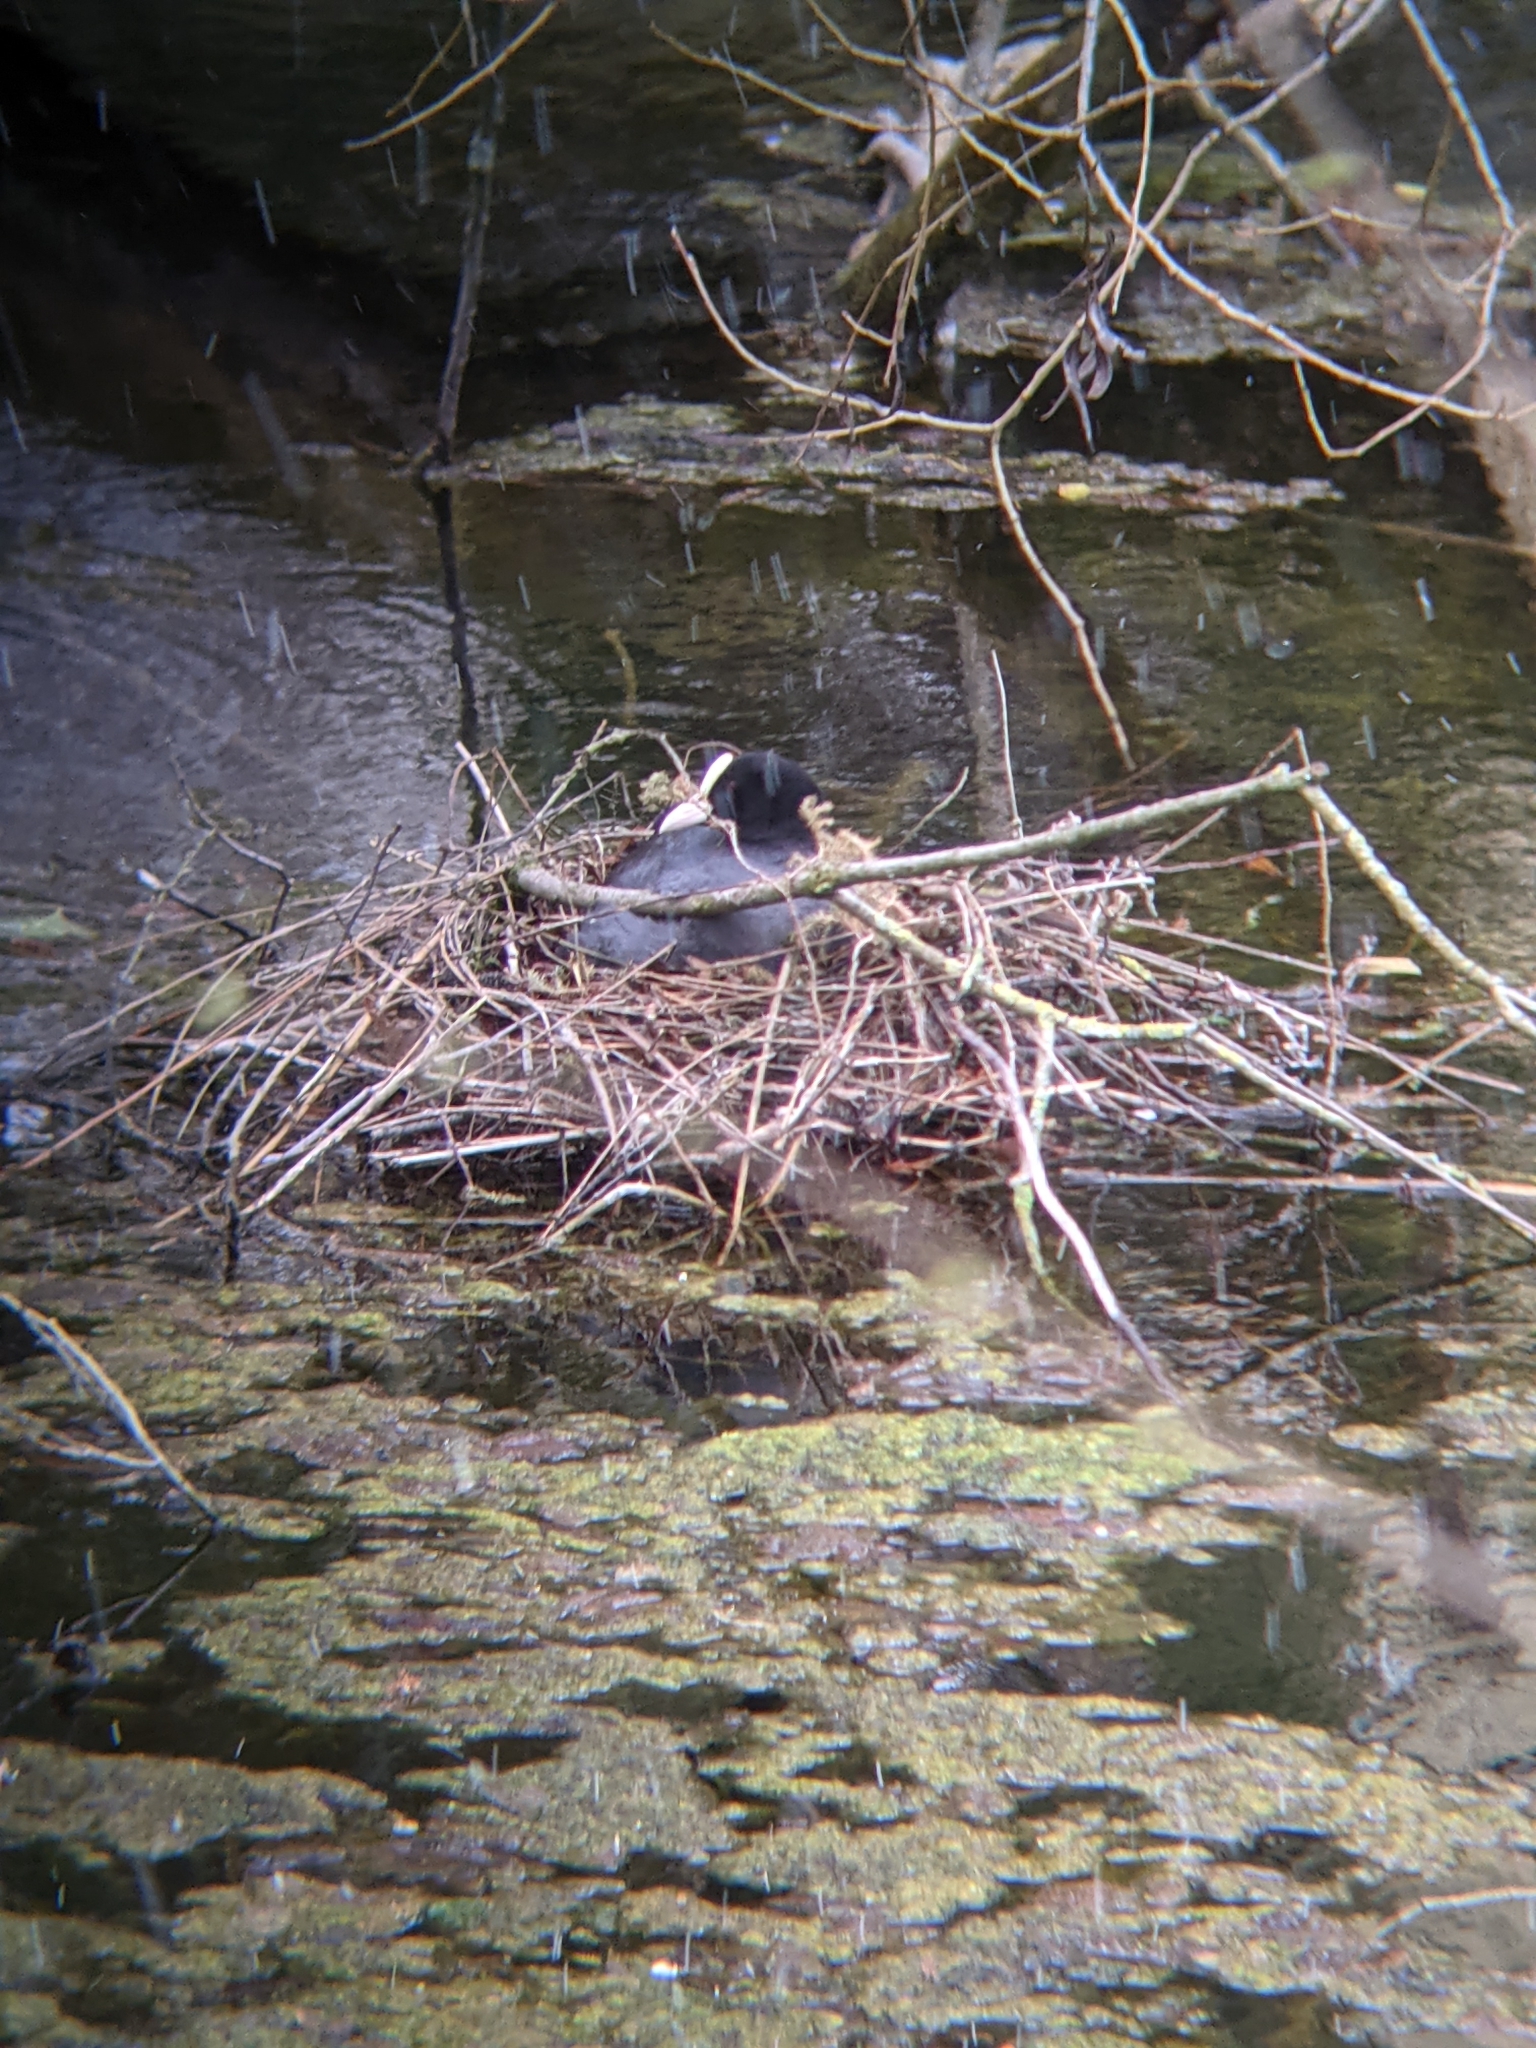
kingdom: Animalia
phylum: Chordata
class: Aves
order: Gruiformes
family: Rallidae
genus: Fulica
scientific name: Fulica atra
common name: Eurasian coot
